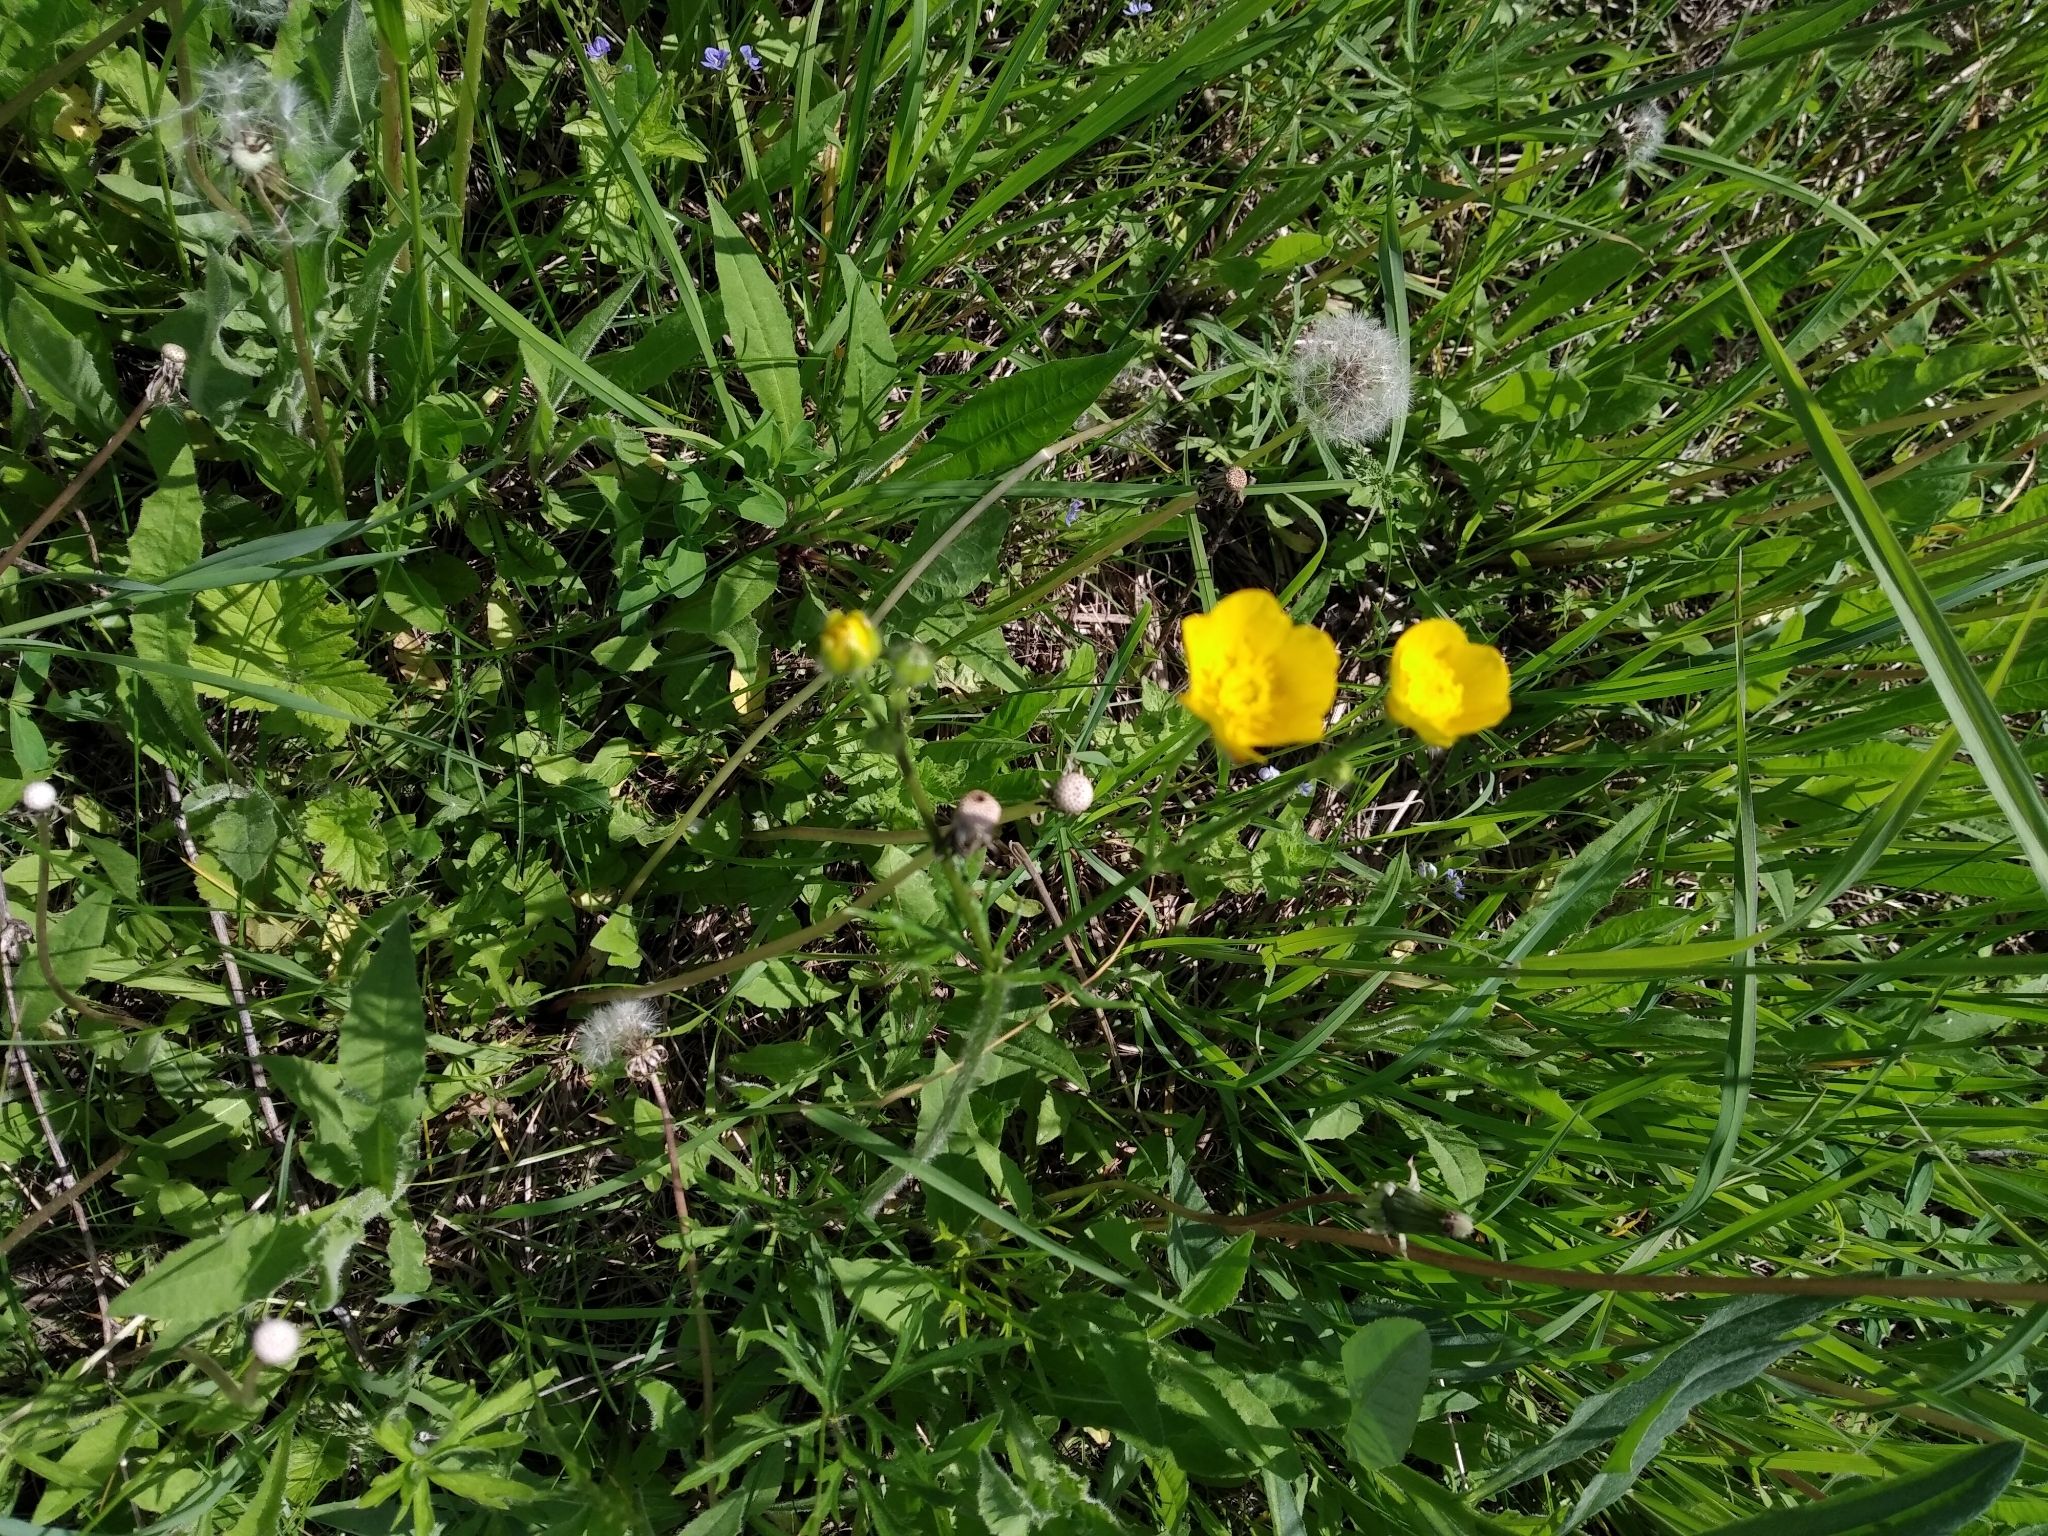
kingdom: Plantae
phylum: Tracheophyta
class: Magnoliopsida
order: Ranunculales
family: Ranunculaceae
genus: Ranunculus
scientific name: Ranunculus polyanthemos
